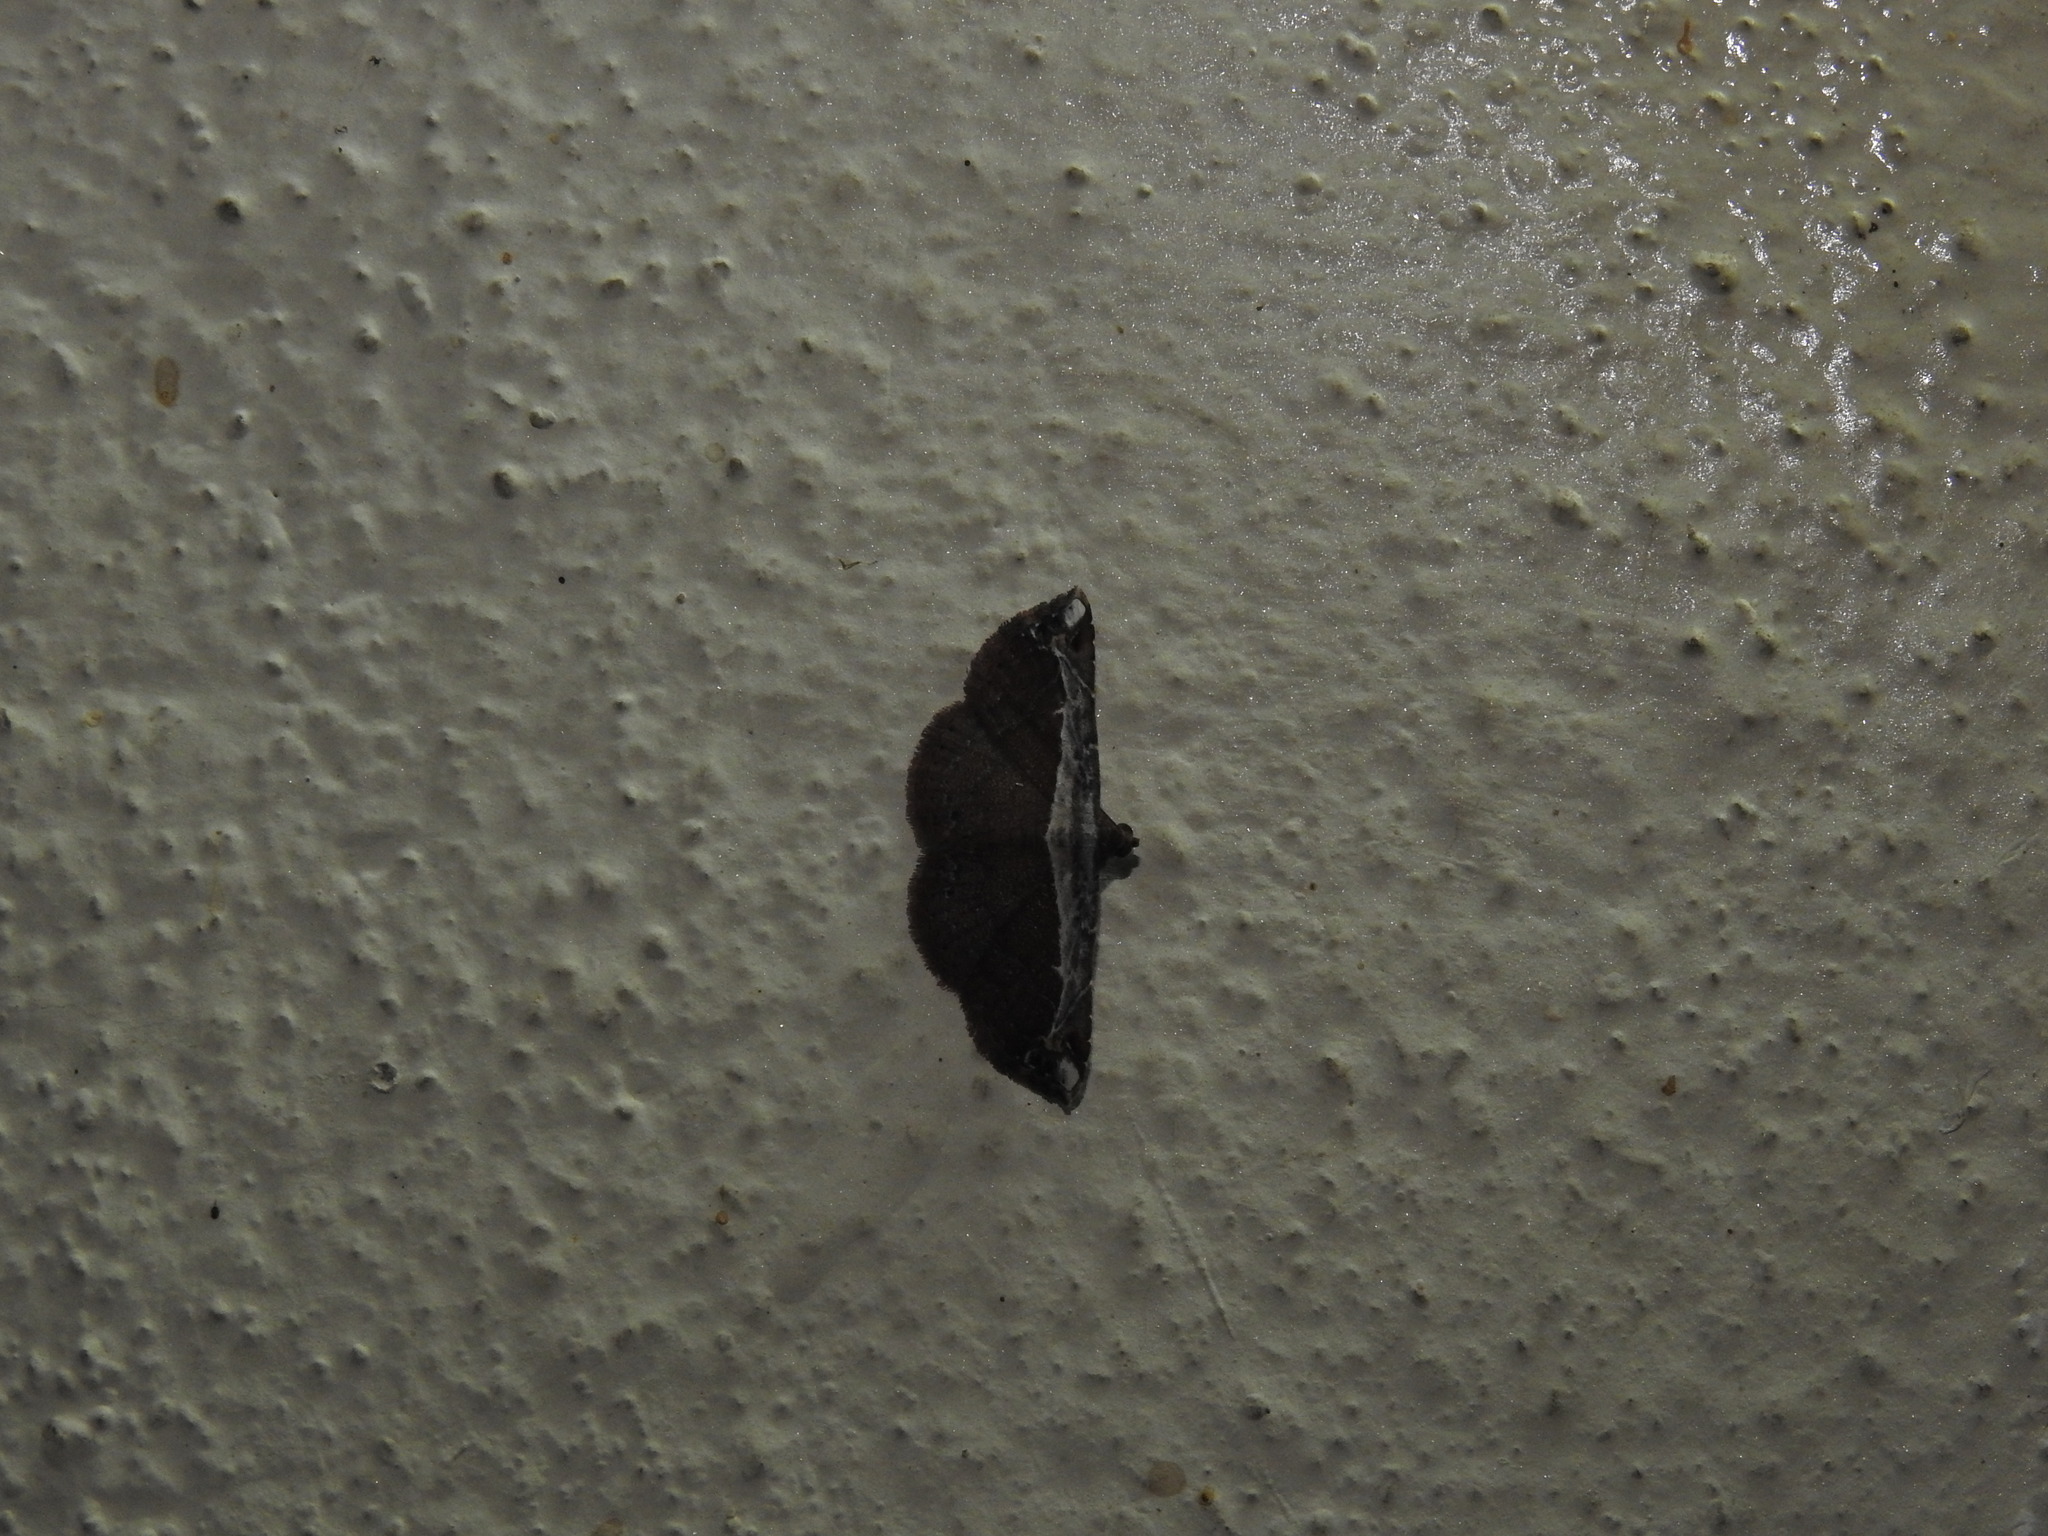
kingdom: Animalia
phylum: Arthropoda
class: Insecta
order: Lepidoptera
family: Erebidae
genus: Zurobata
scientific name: Zurobata vacillans
